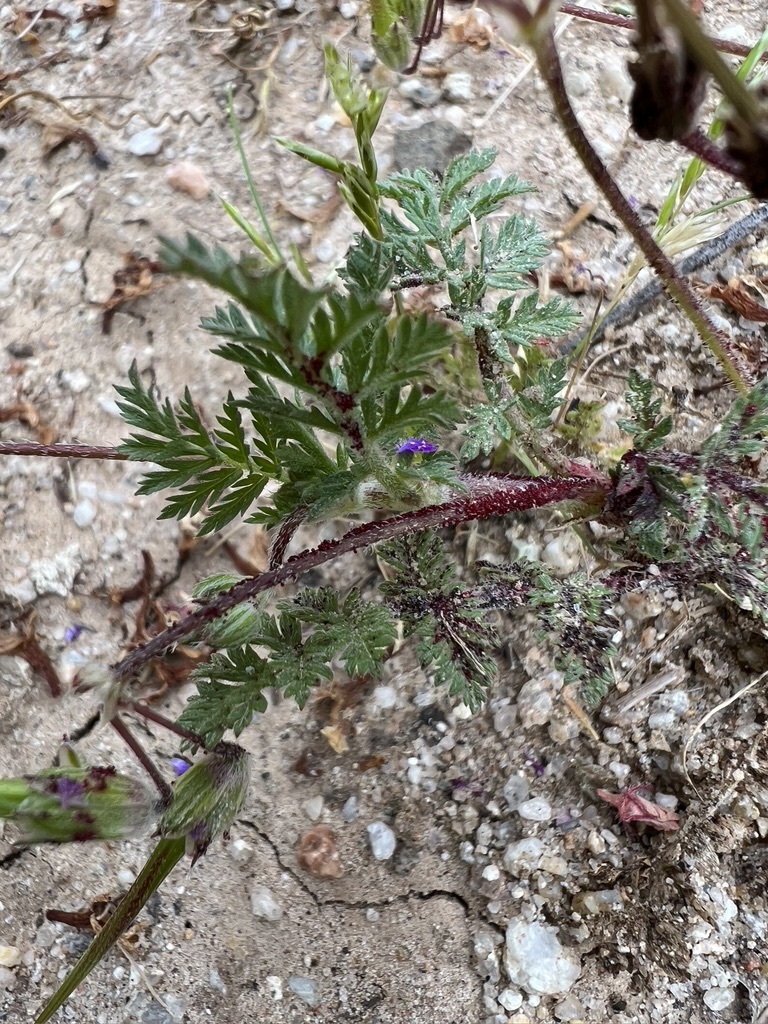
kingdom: Plantae
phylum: Tracheophyta
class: Magnoliopsida
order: Geraniales
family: Geraniaceae
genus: Erodium
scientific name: Erodium cicutarium
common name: Common stork's-bill
